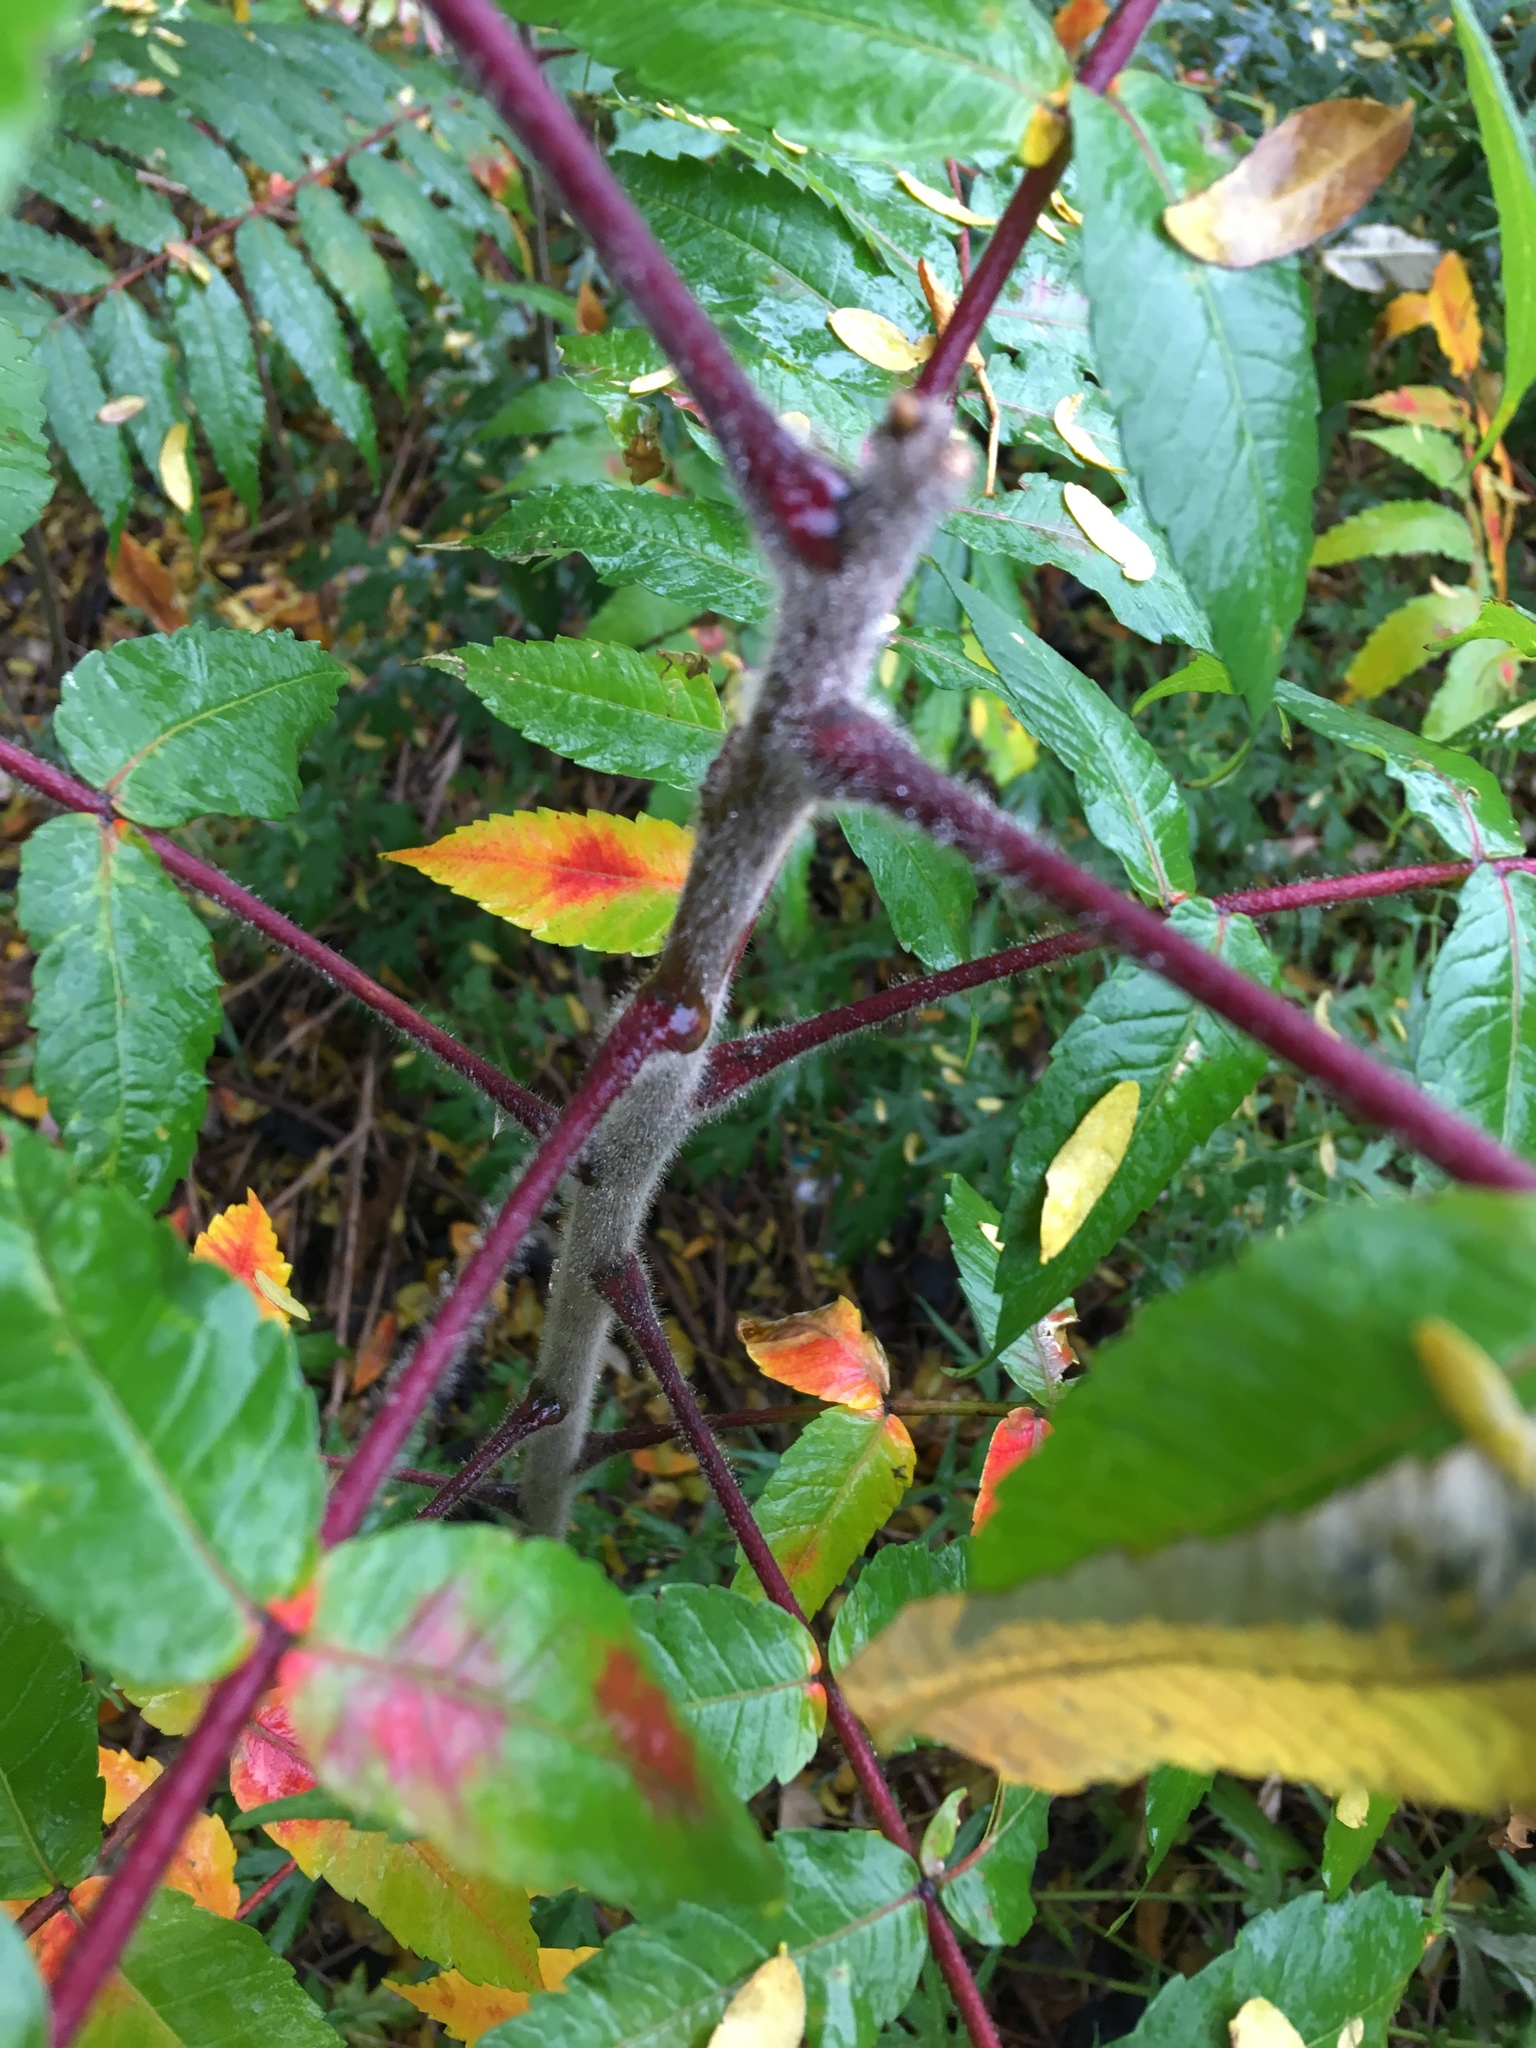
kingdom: Plantae
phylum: Tracheophyta
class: Magnoliopsida
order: Sapindales
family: Anacardiaceae
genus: Rhus
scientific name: Rhus typhina
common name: Staghorn sumac
